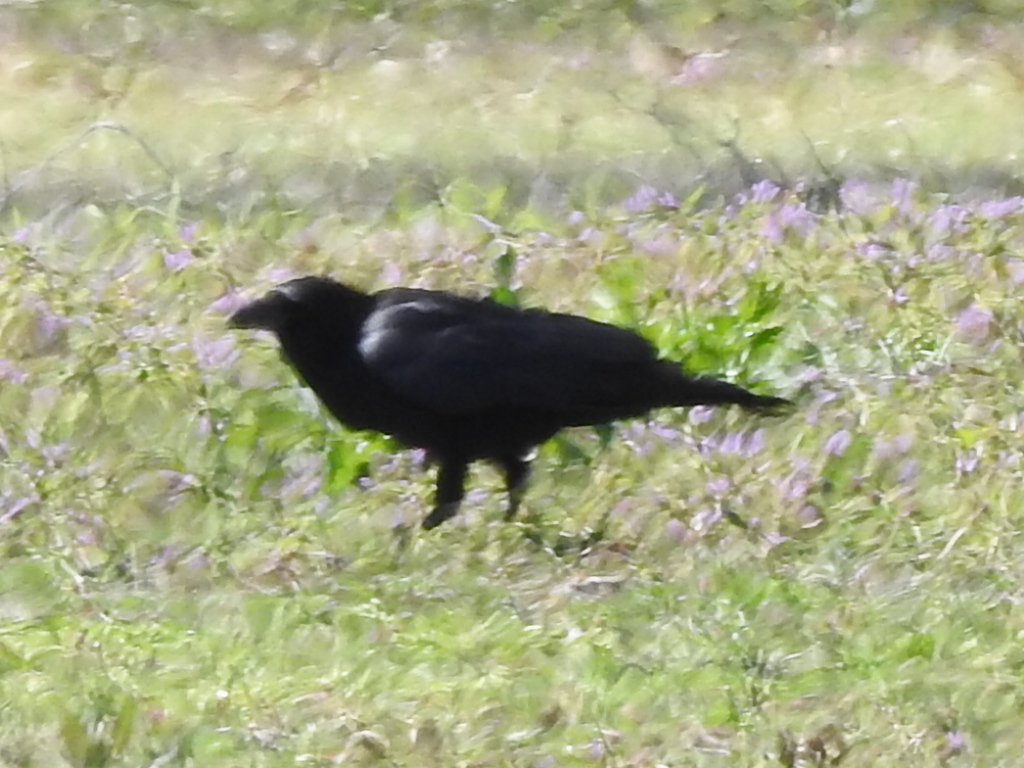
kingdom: Animalia
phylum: Chordata
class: Aves
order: Passeriformes
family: Corvidae
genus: Corvus
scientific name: Corvus brachyrhynchos
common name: American crow
